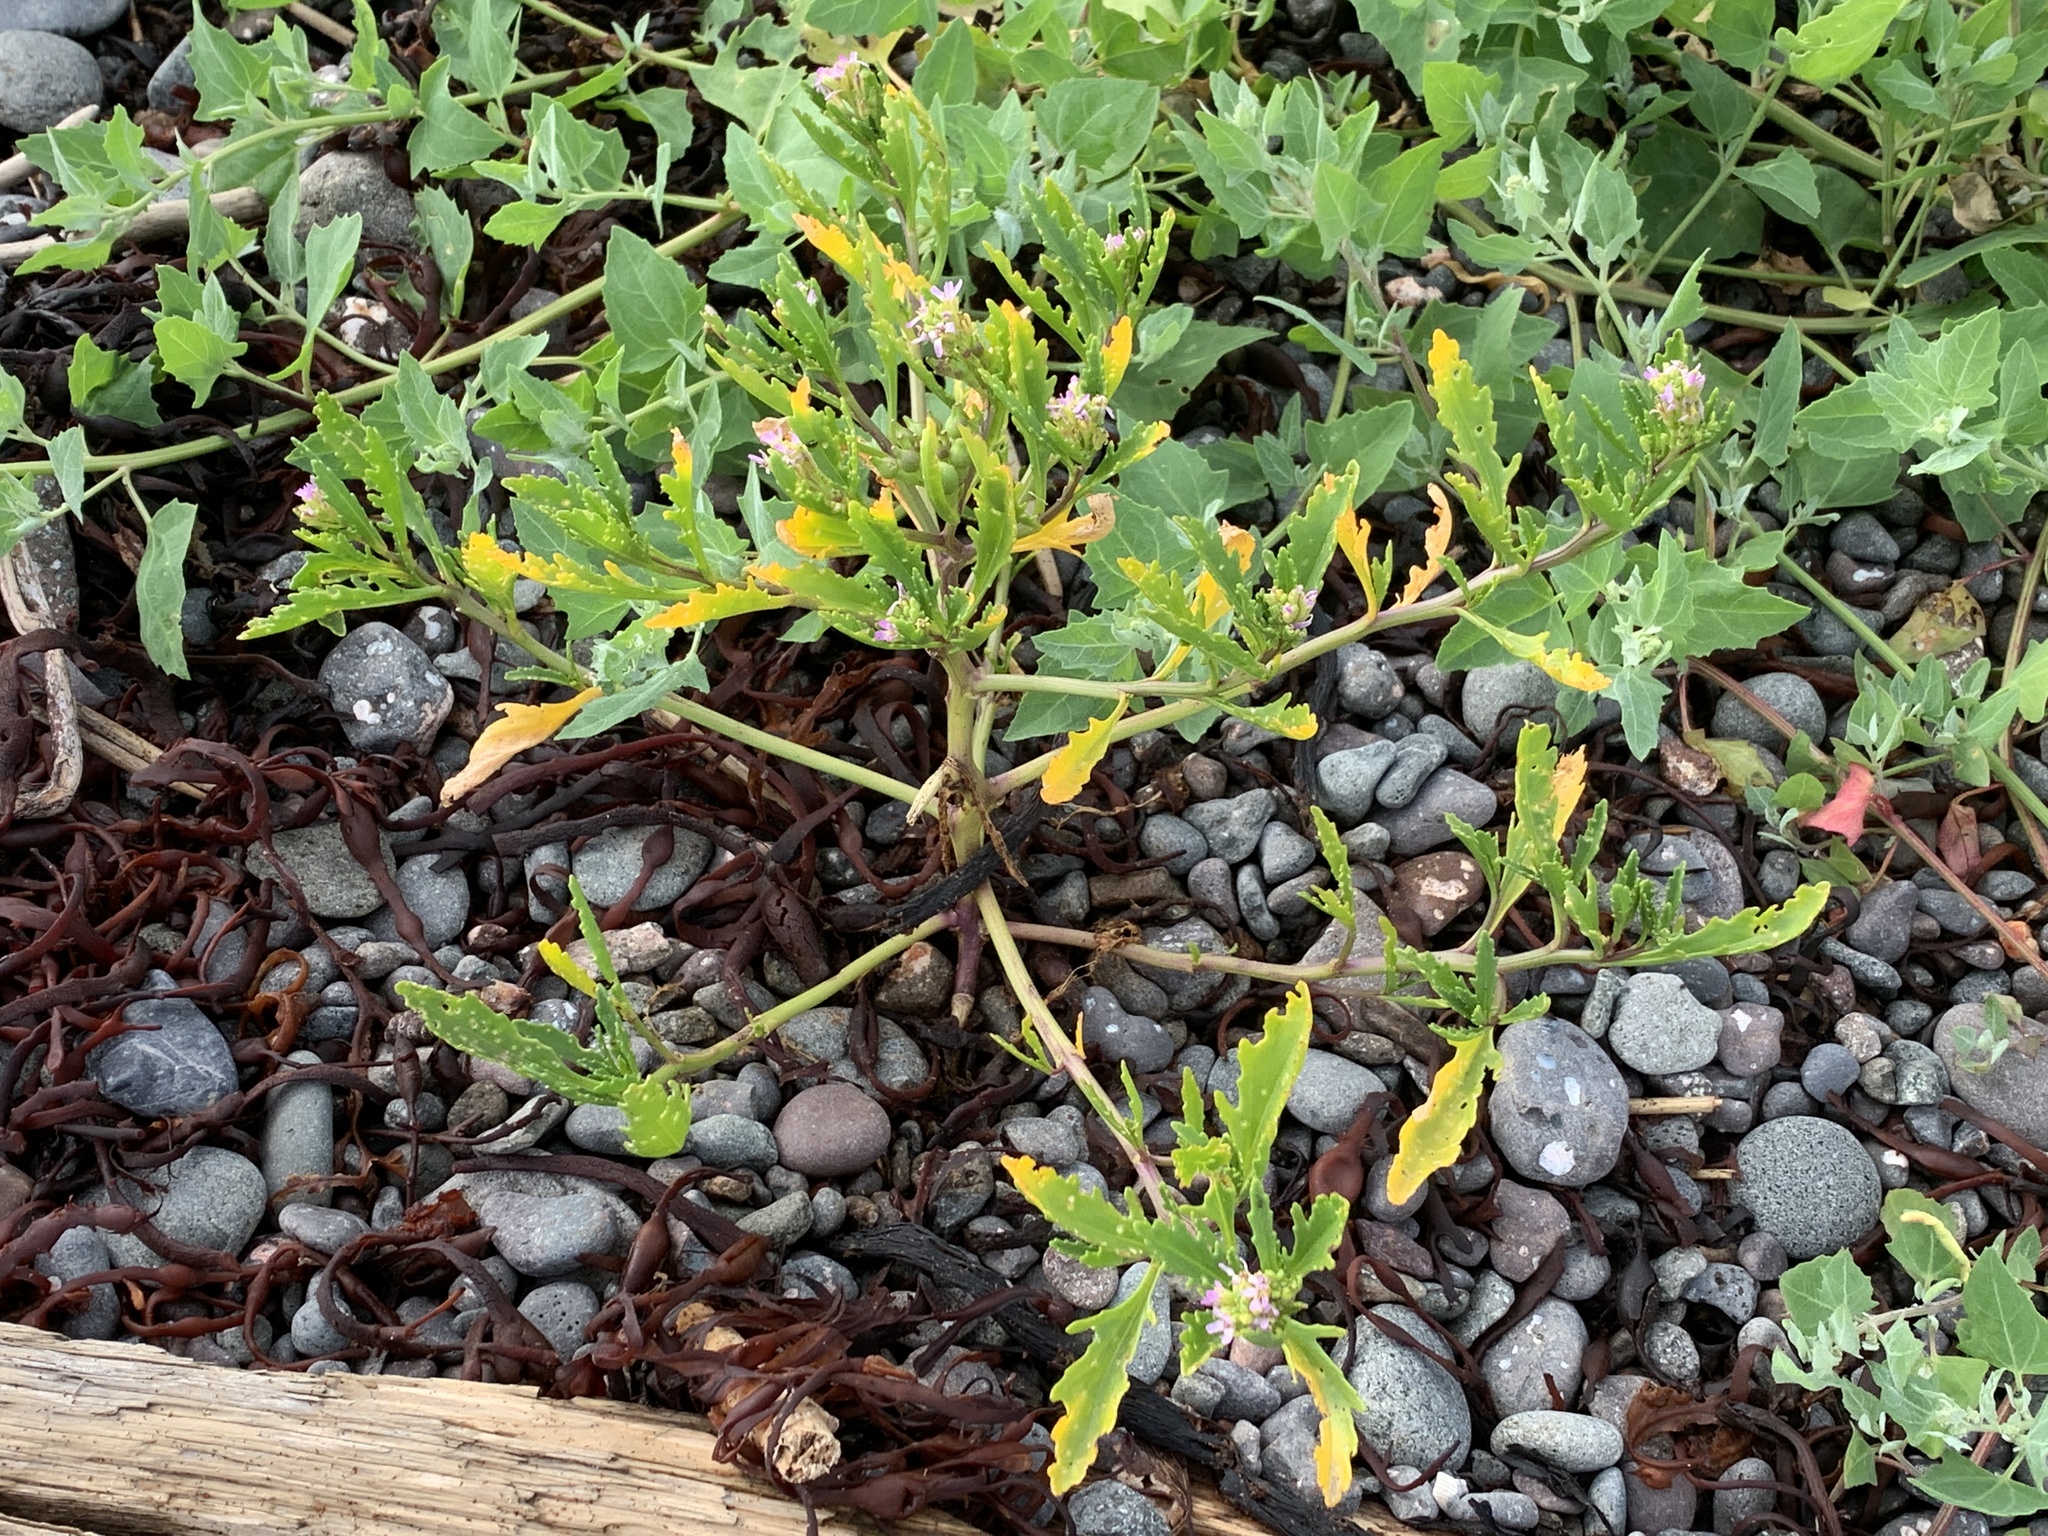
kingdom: Plantae
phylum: Tracheophyta
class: Magnoliopsida
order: Brassicales
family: Brassicaceae
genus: Cakile
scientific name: Cakile edentula
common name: American sea rocket
